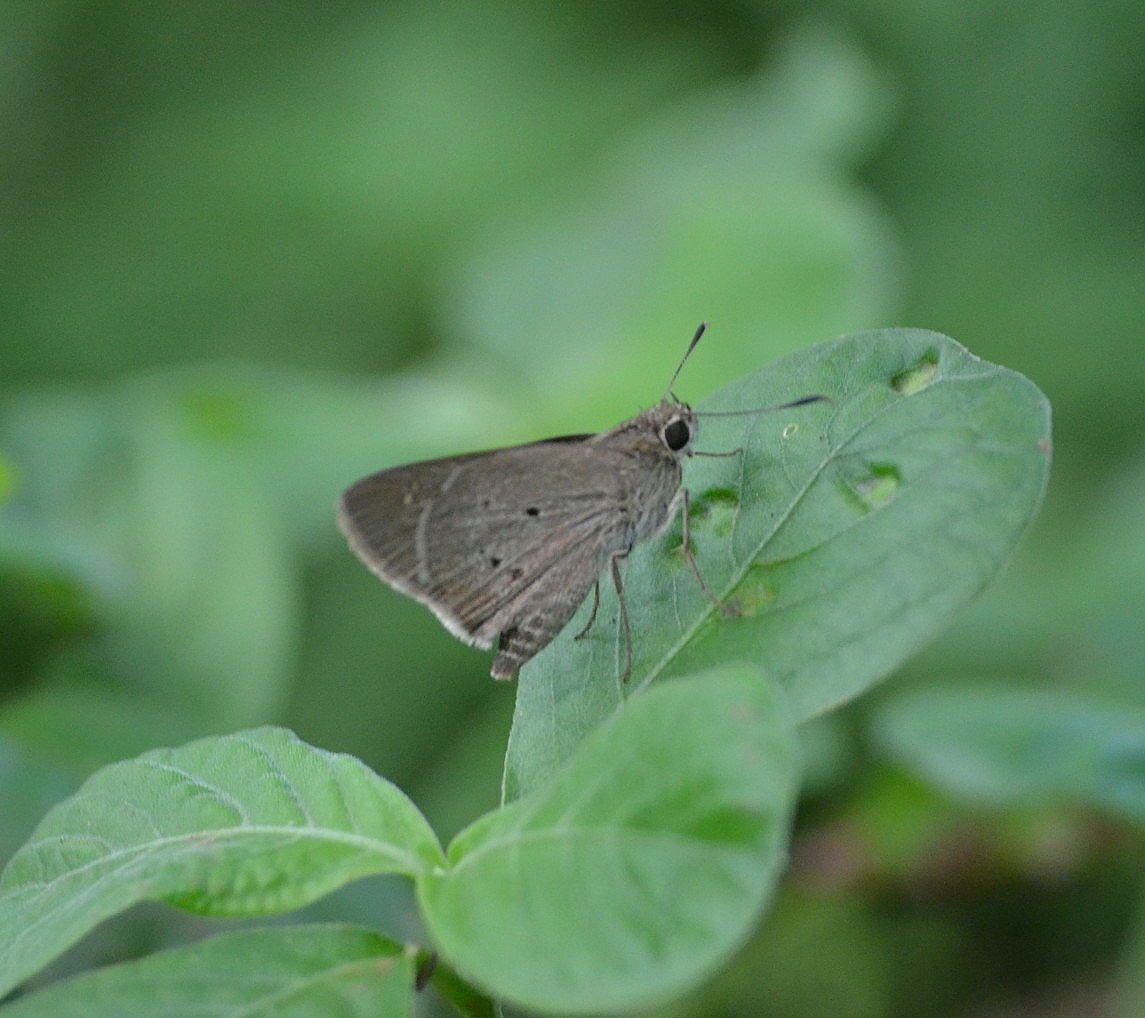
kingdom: Animalia
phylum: Arthropoda
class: Insecta
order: Lepidoptera
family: Hesperiidae
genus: Suastus
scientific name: Suastus gremius
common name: Indian palm bob
